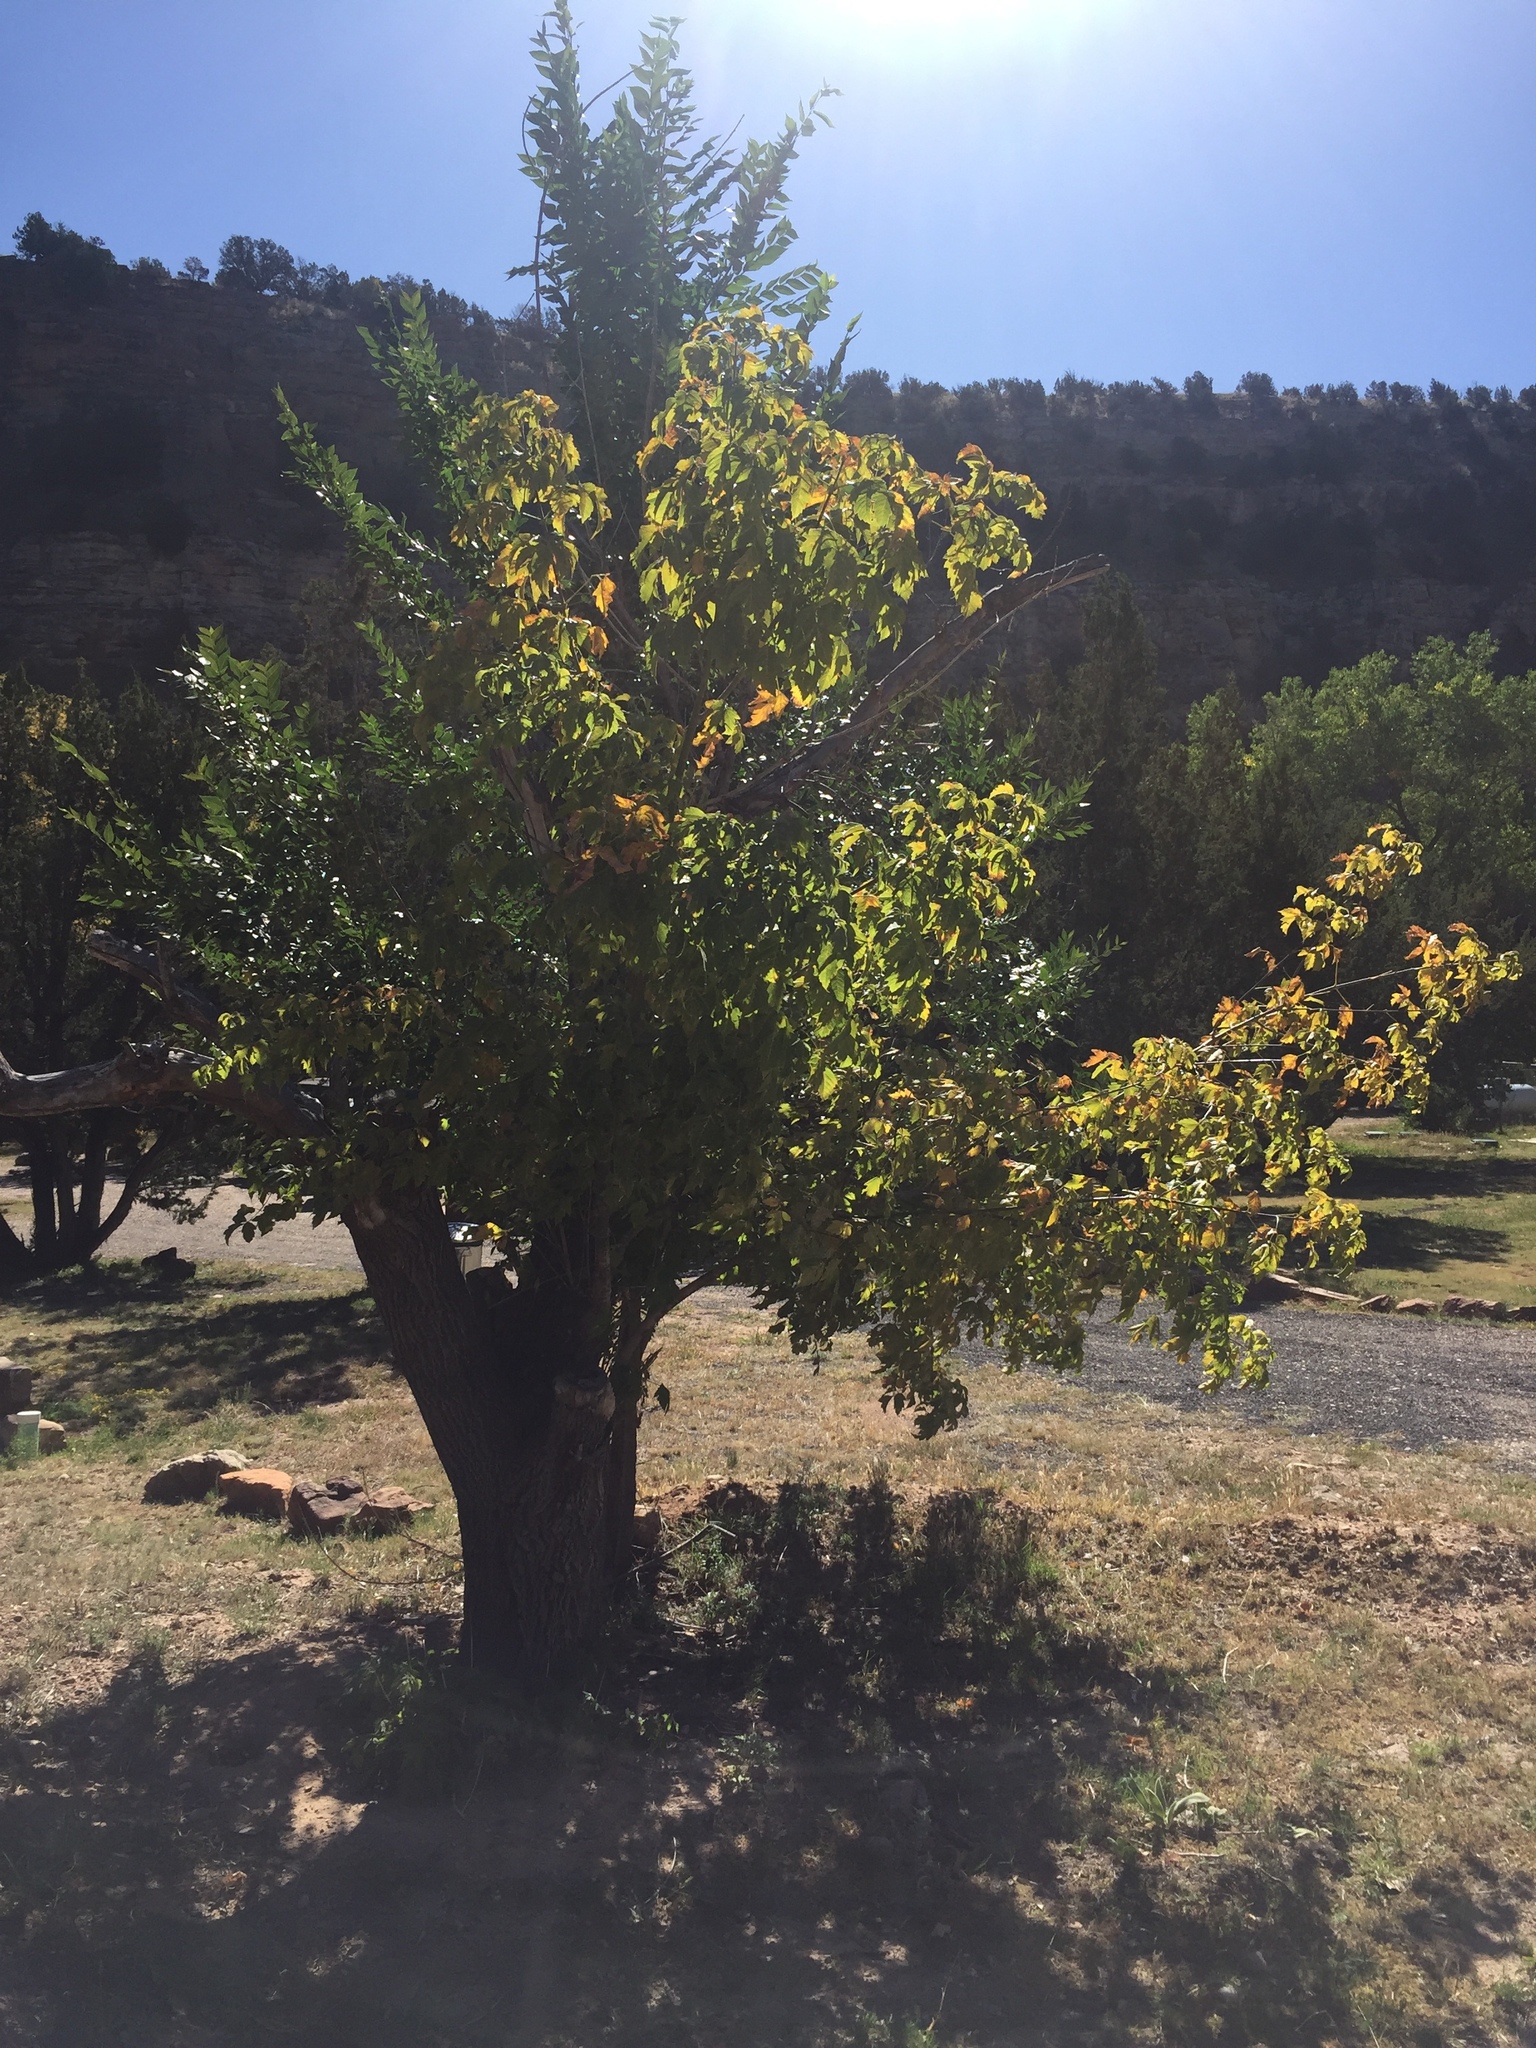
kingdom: Plantae
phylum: Tracheophyta
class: Magnoliopsida
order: Sapindales
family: Sapindaceae
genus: Acer
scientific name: Acer negundo
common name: Ashleaf maple
